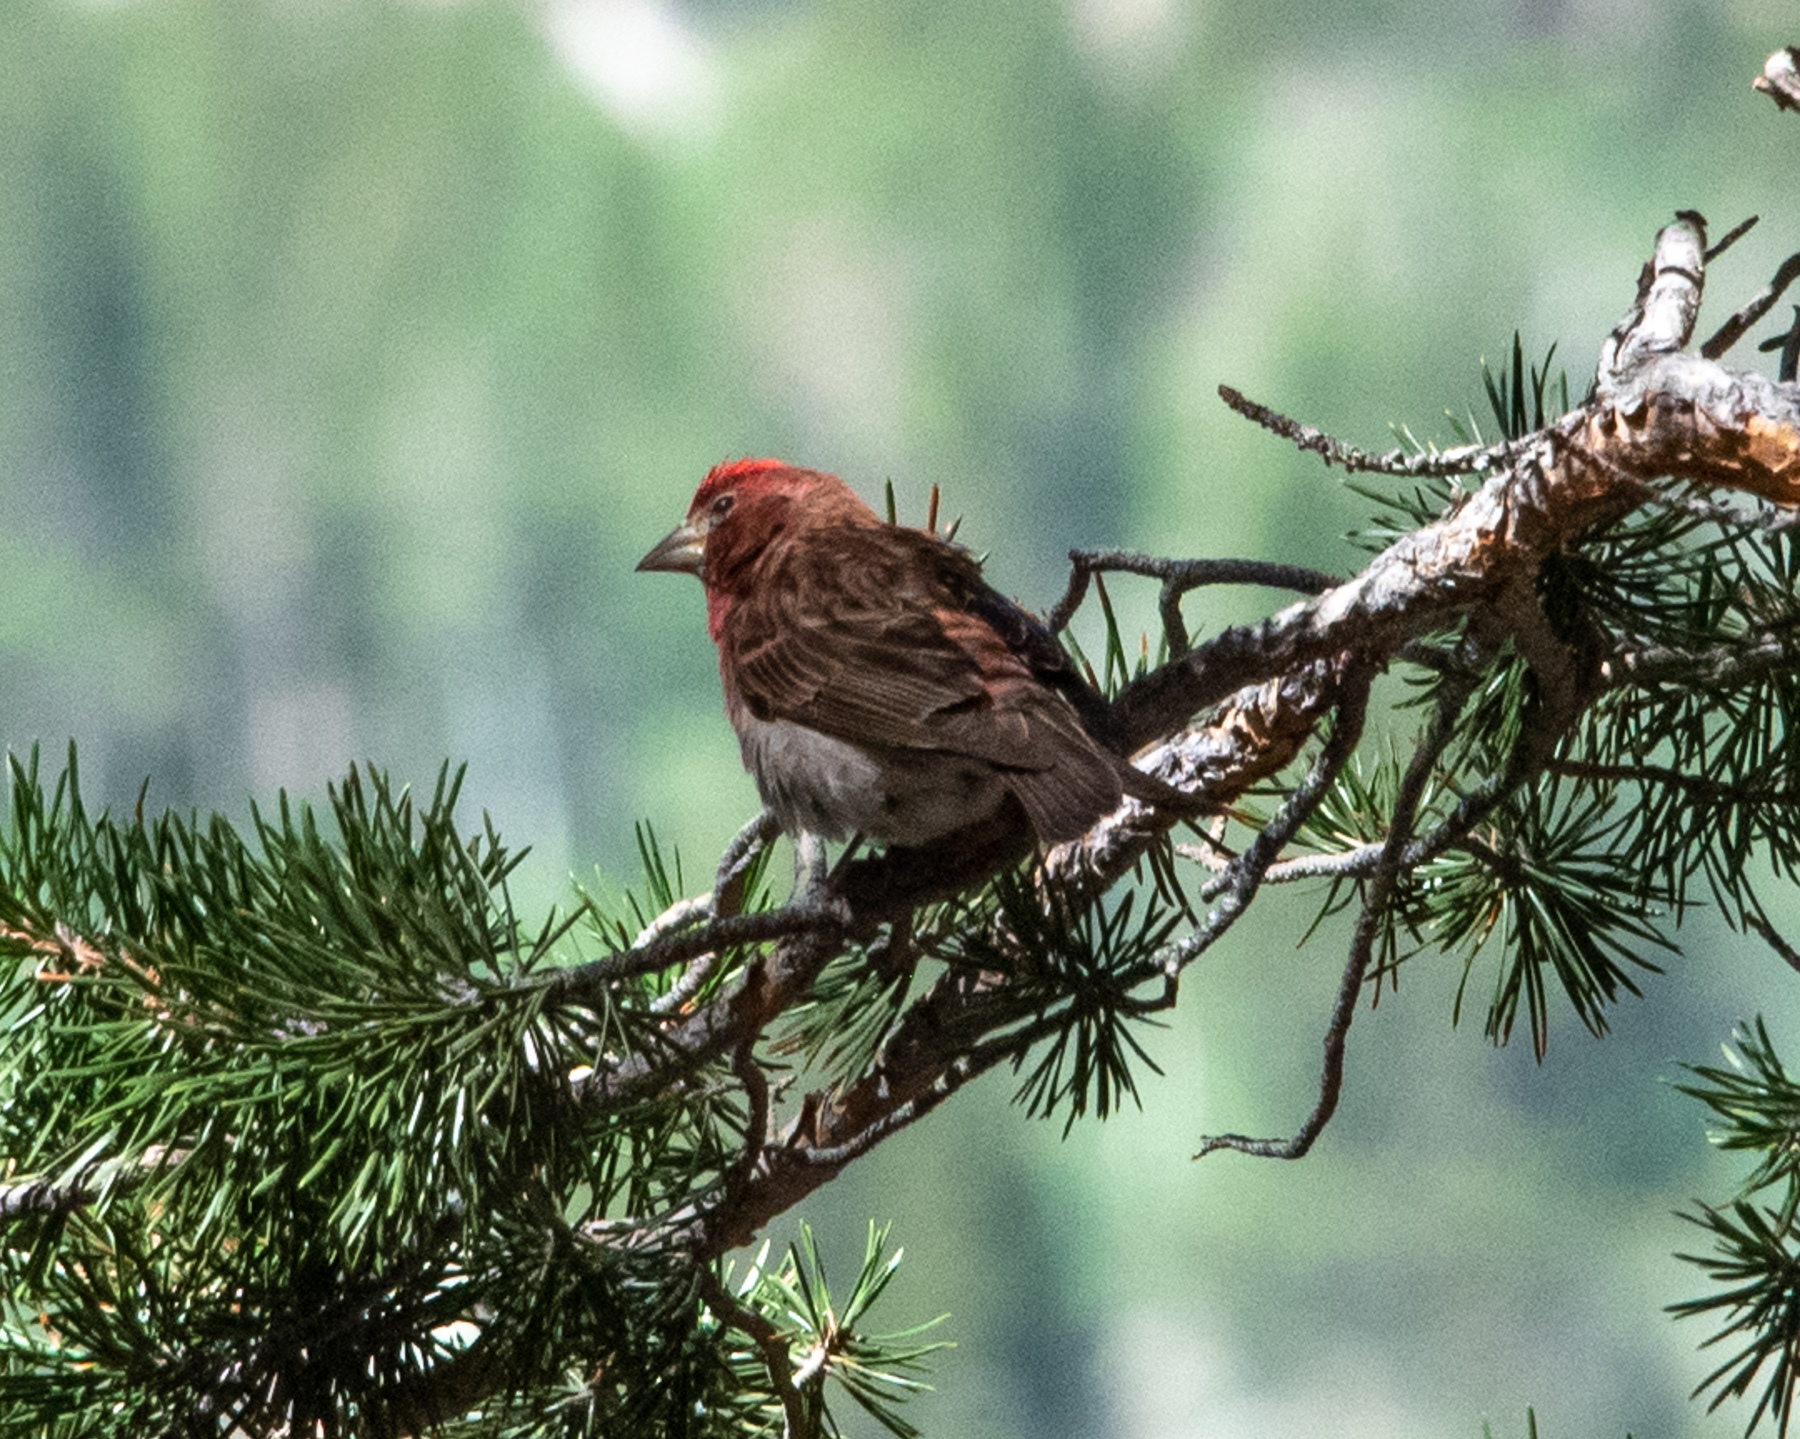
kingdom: Animalia
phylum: Chordata
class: Aves
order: Passeriformes
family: Fringillidae
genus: Haemorhous
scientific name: Haemorhous cassinii
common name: Cassin's finch
